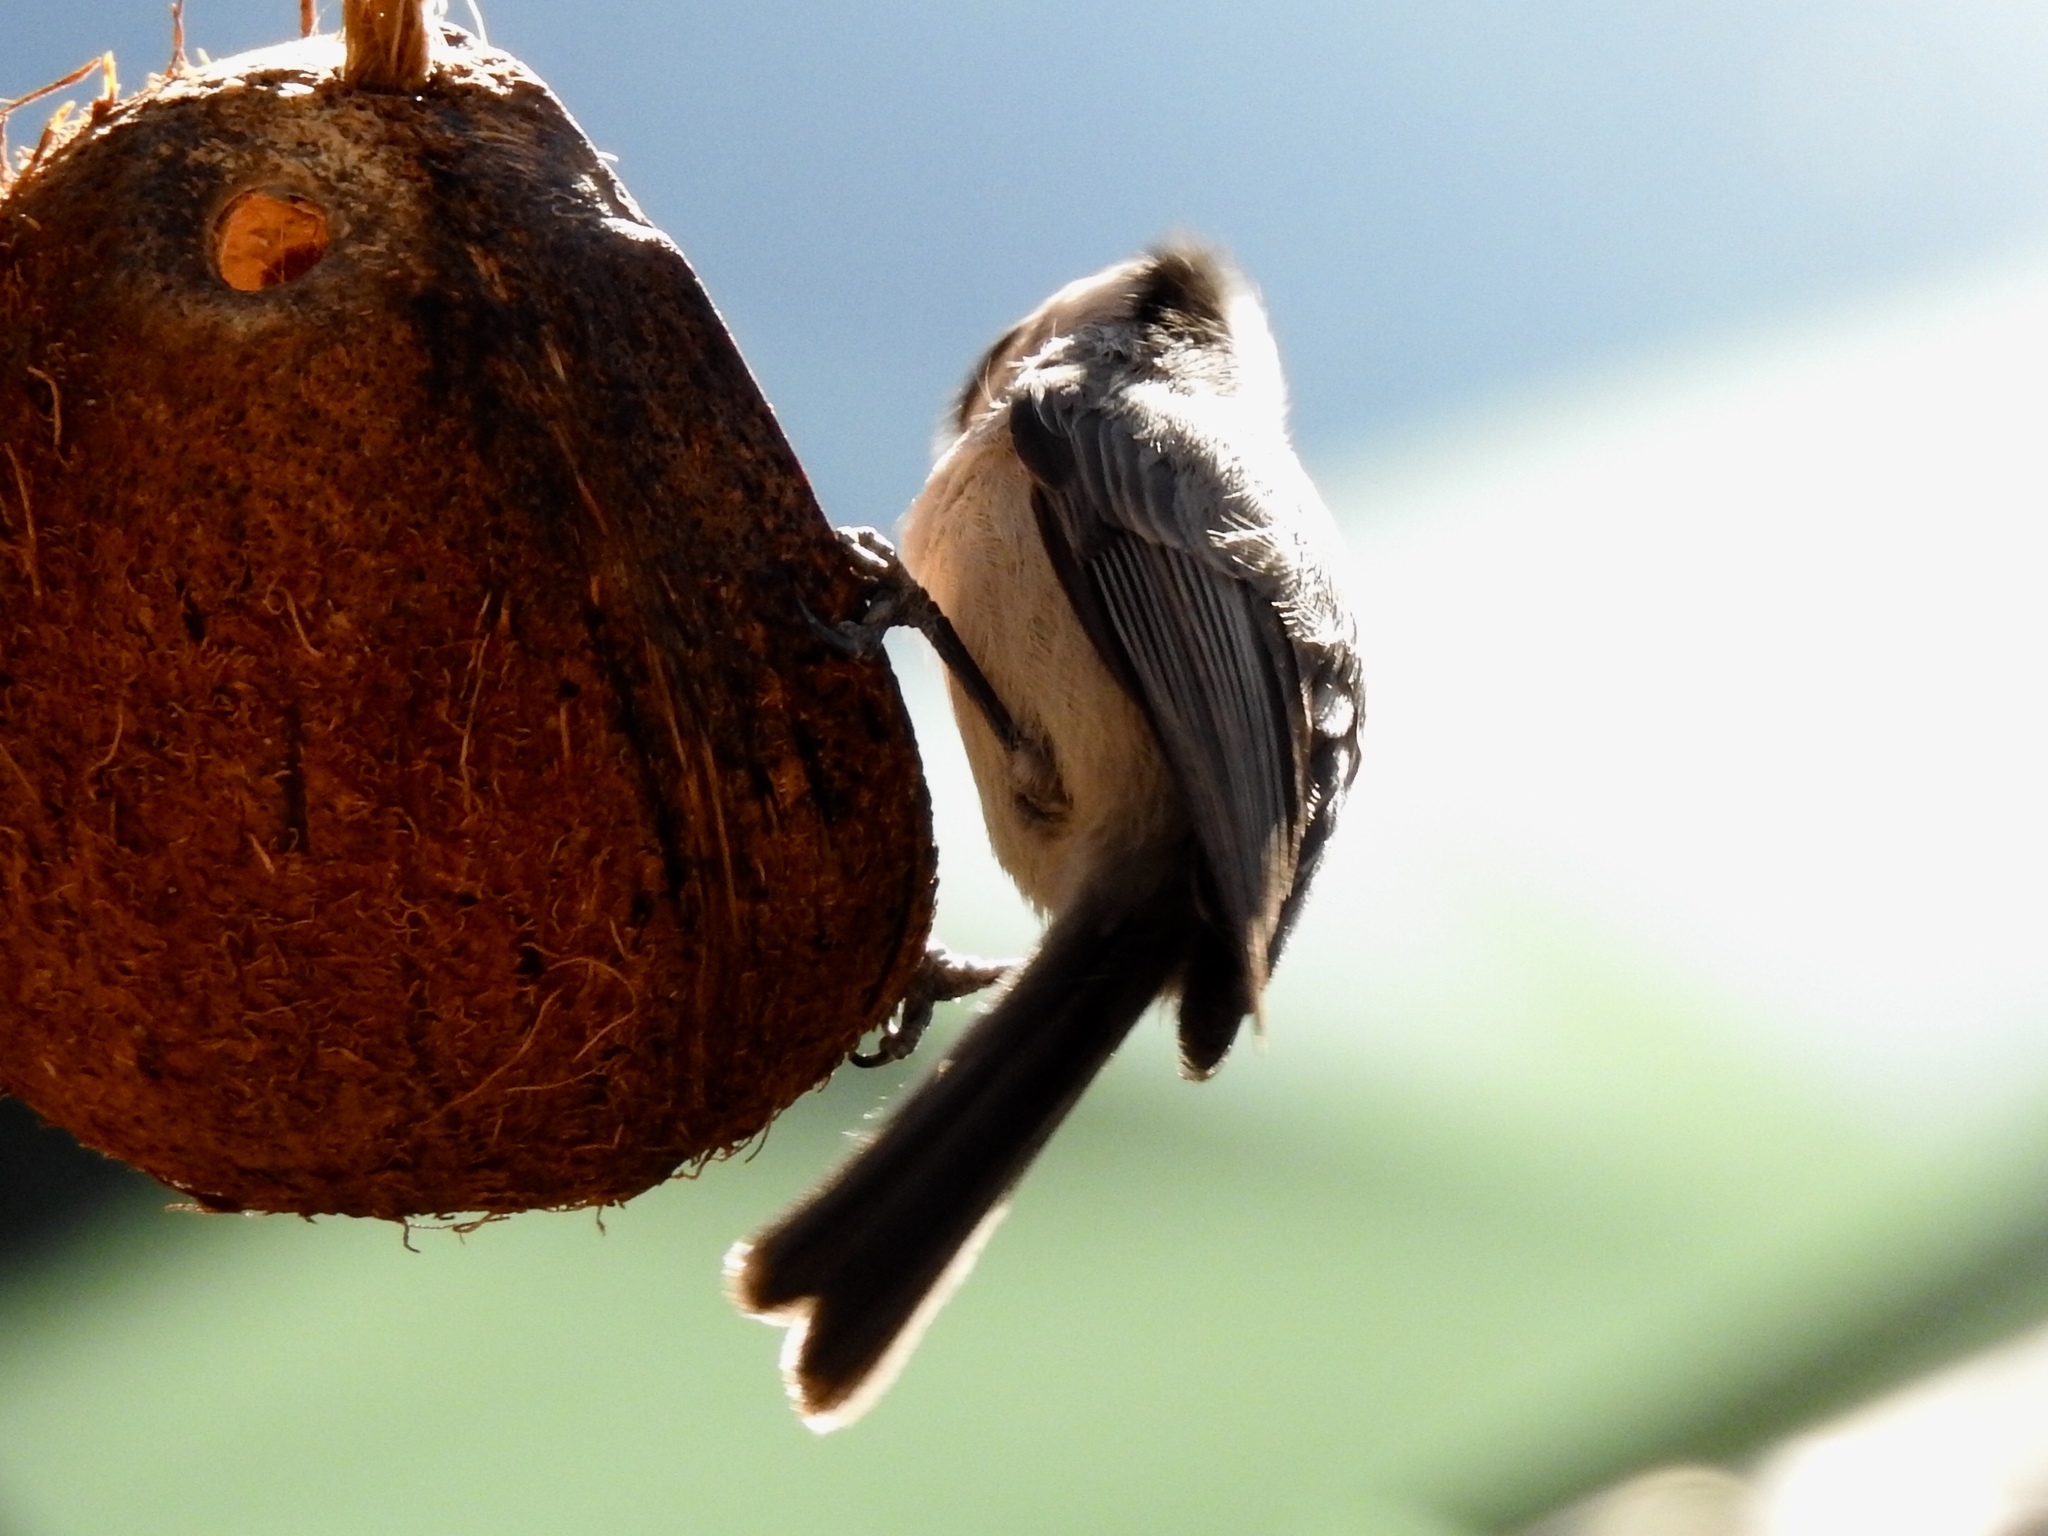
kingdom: Animalia
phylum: Chordata
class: Aves
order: Passeriformes
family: Paridae
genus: Poecile
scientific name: Poecile gambeli
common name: Mountain chickadee
